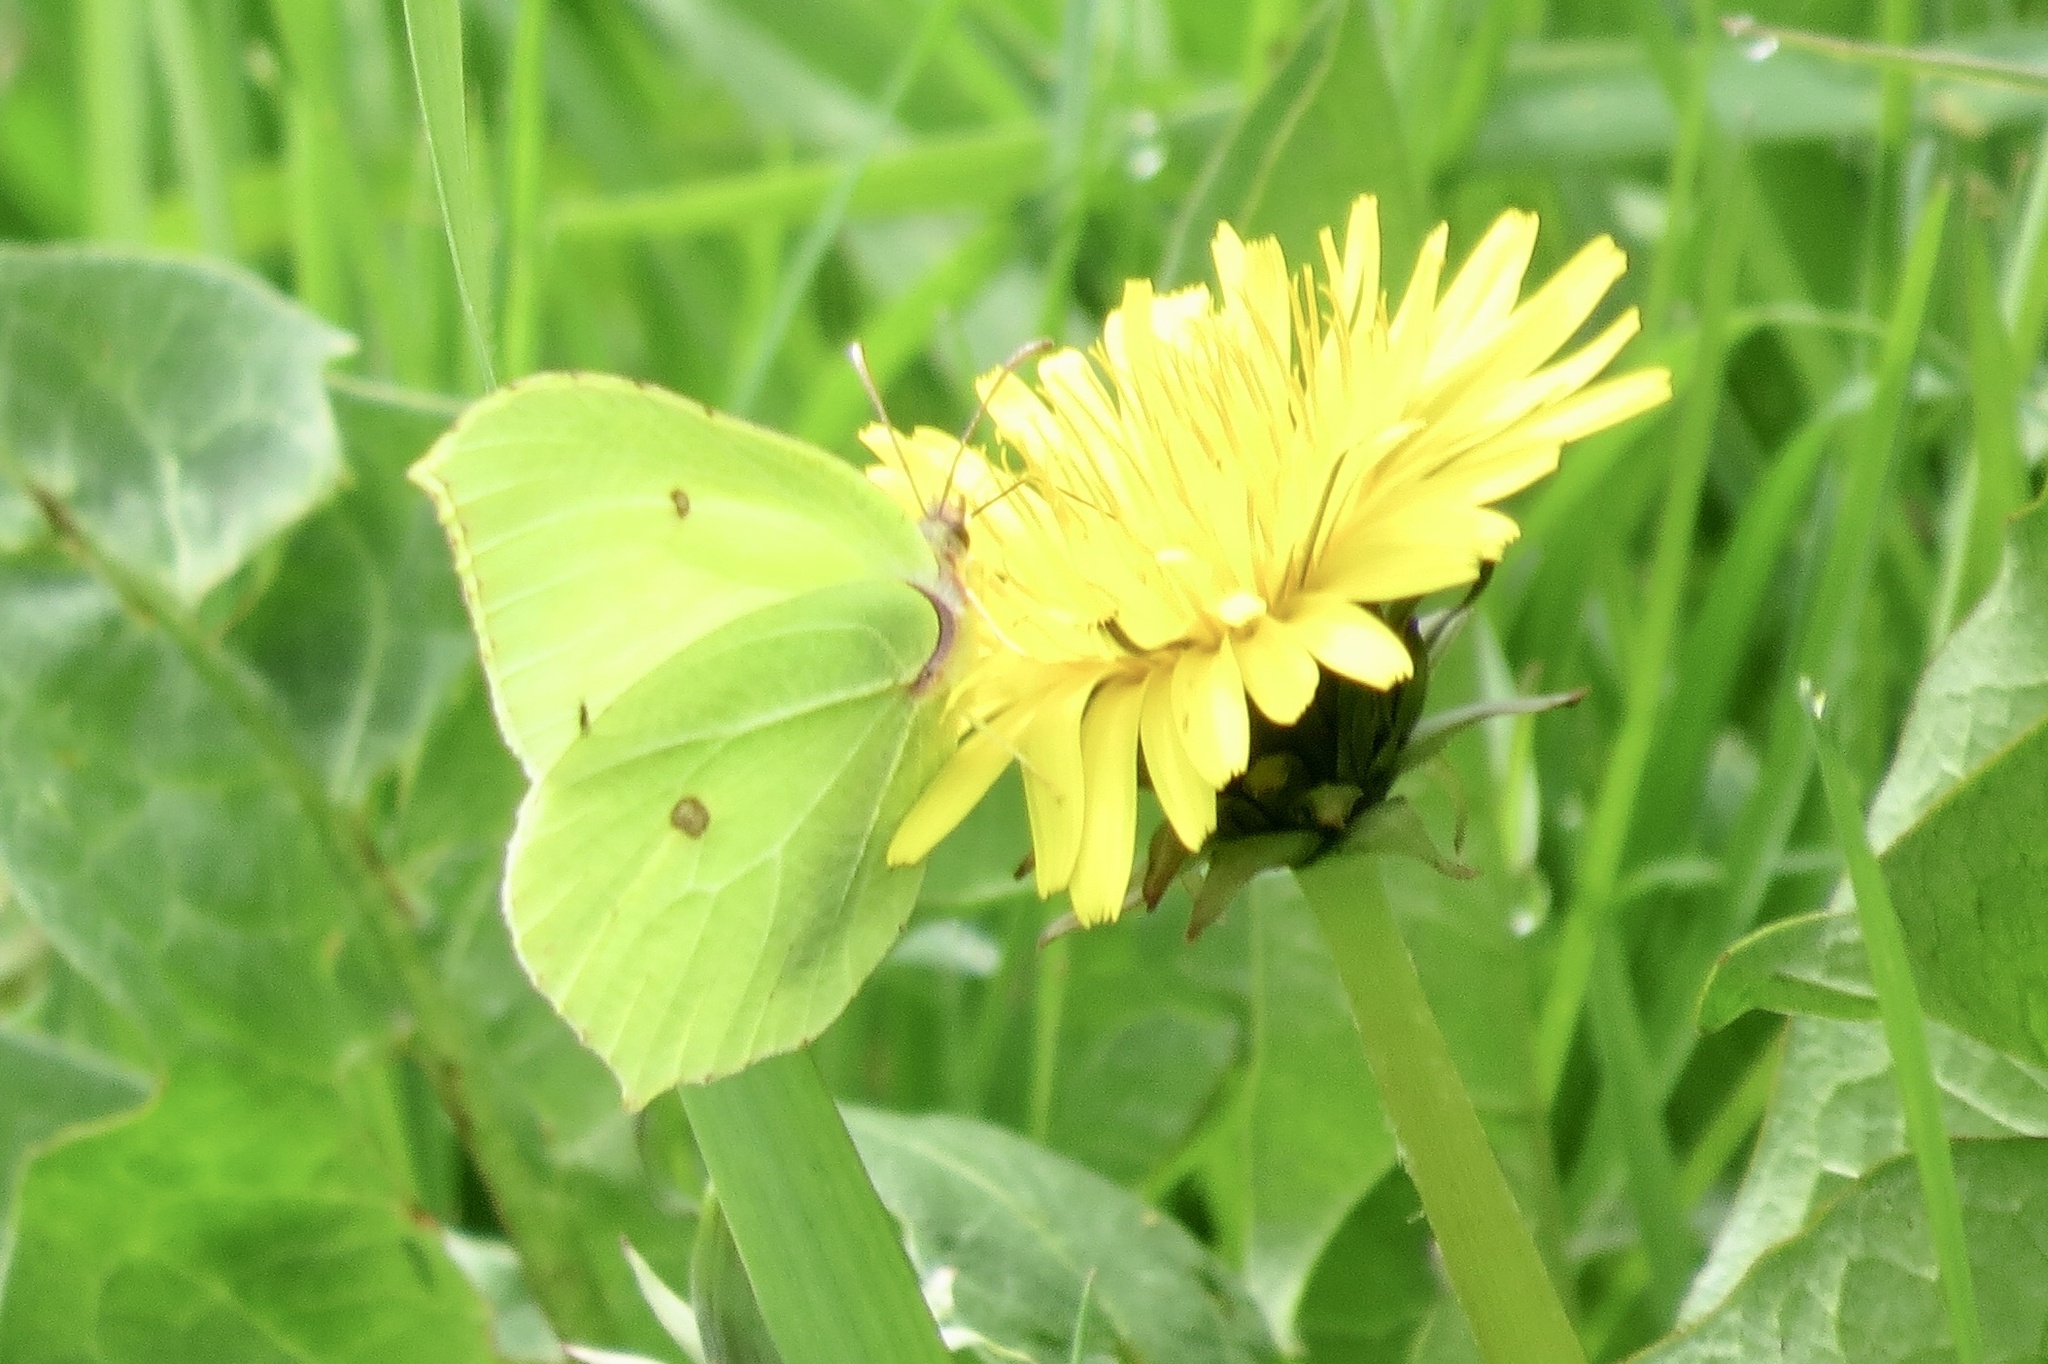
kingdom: Animalia
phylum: Arthropoda
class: Insecta
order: Lepidoptera
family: Pieridae
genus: Gonepteryx
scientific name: Gonepteryx rhamni
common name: Brimstone
